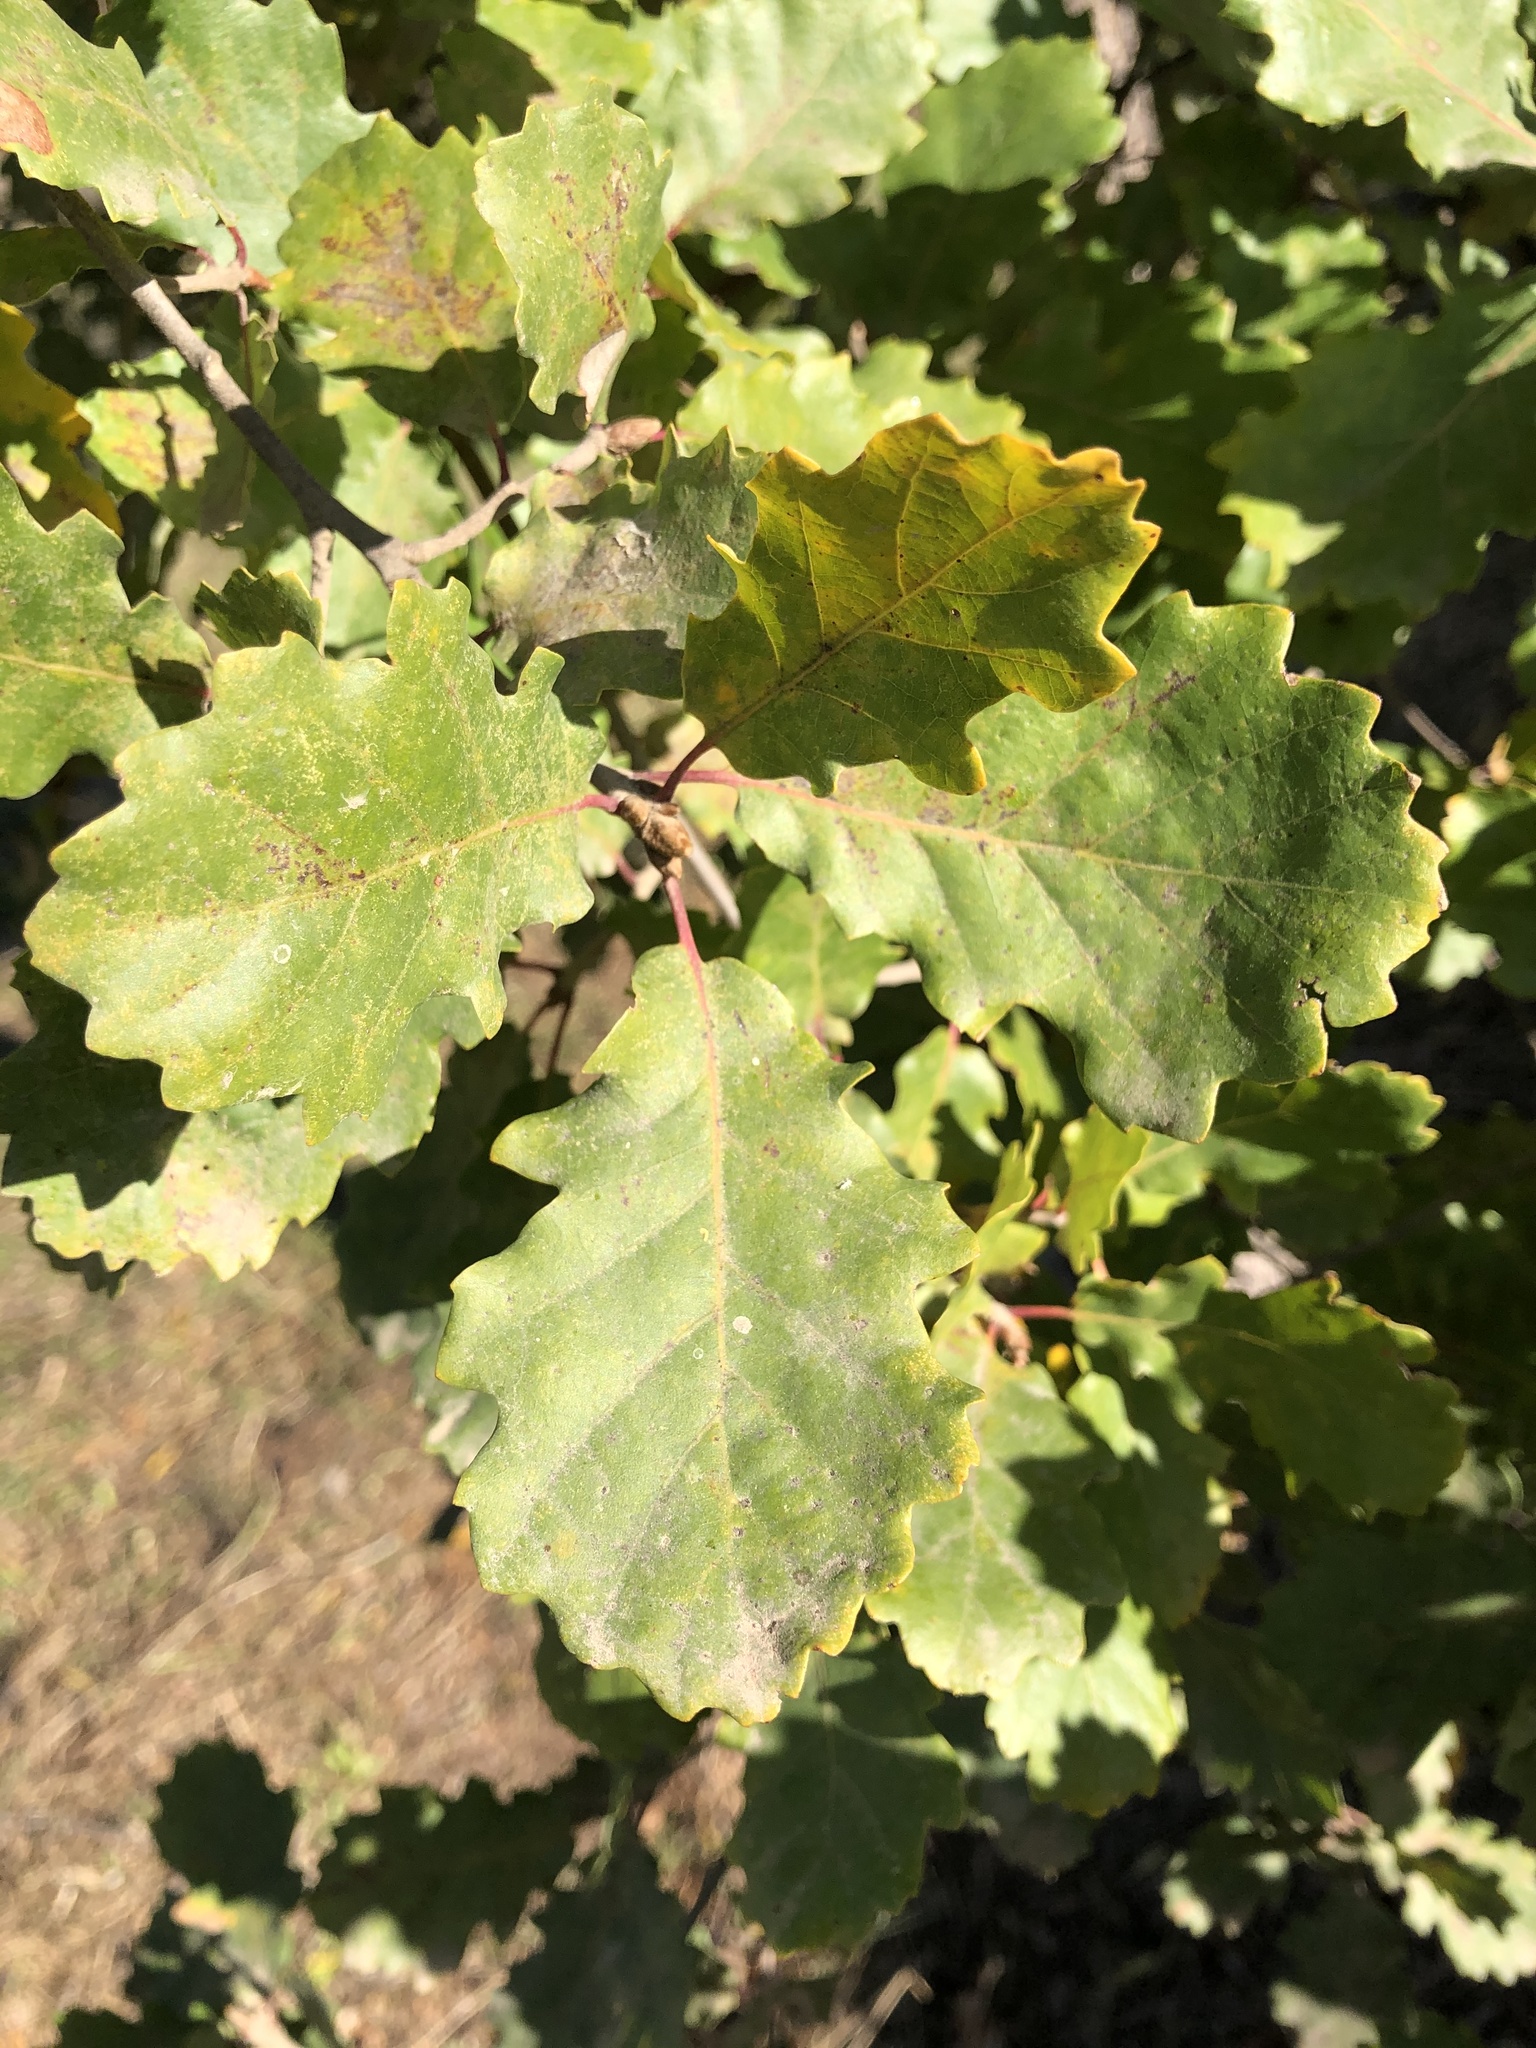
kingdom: Plantae
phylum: Tracheophyta
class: Magnoliopsida
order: Fagales
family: Fagaceae
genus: Quercus
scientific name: Quercus cerrioides
